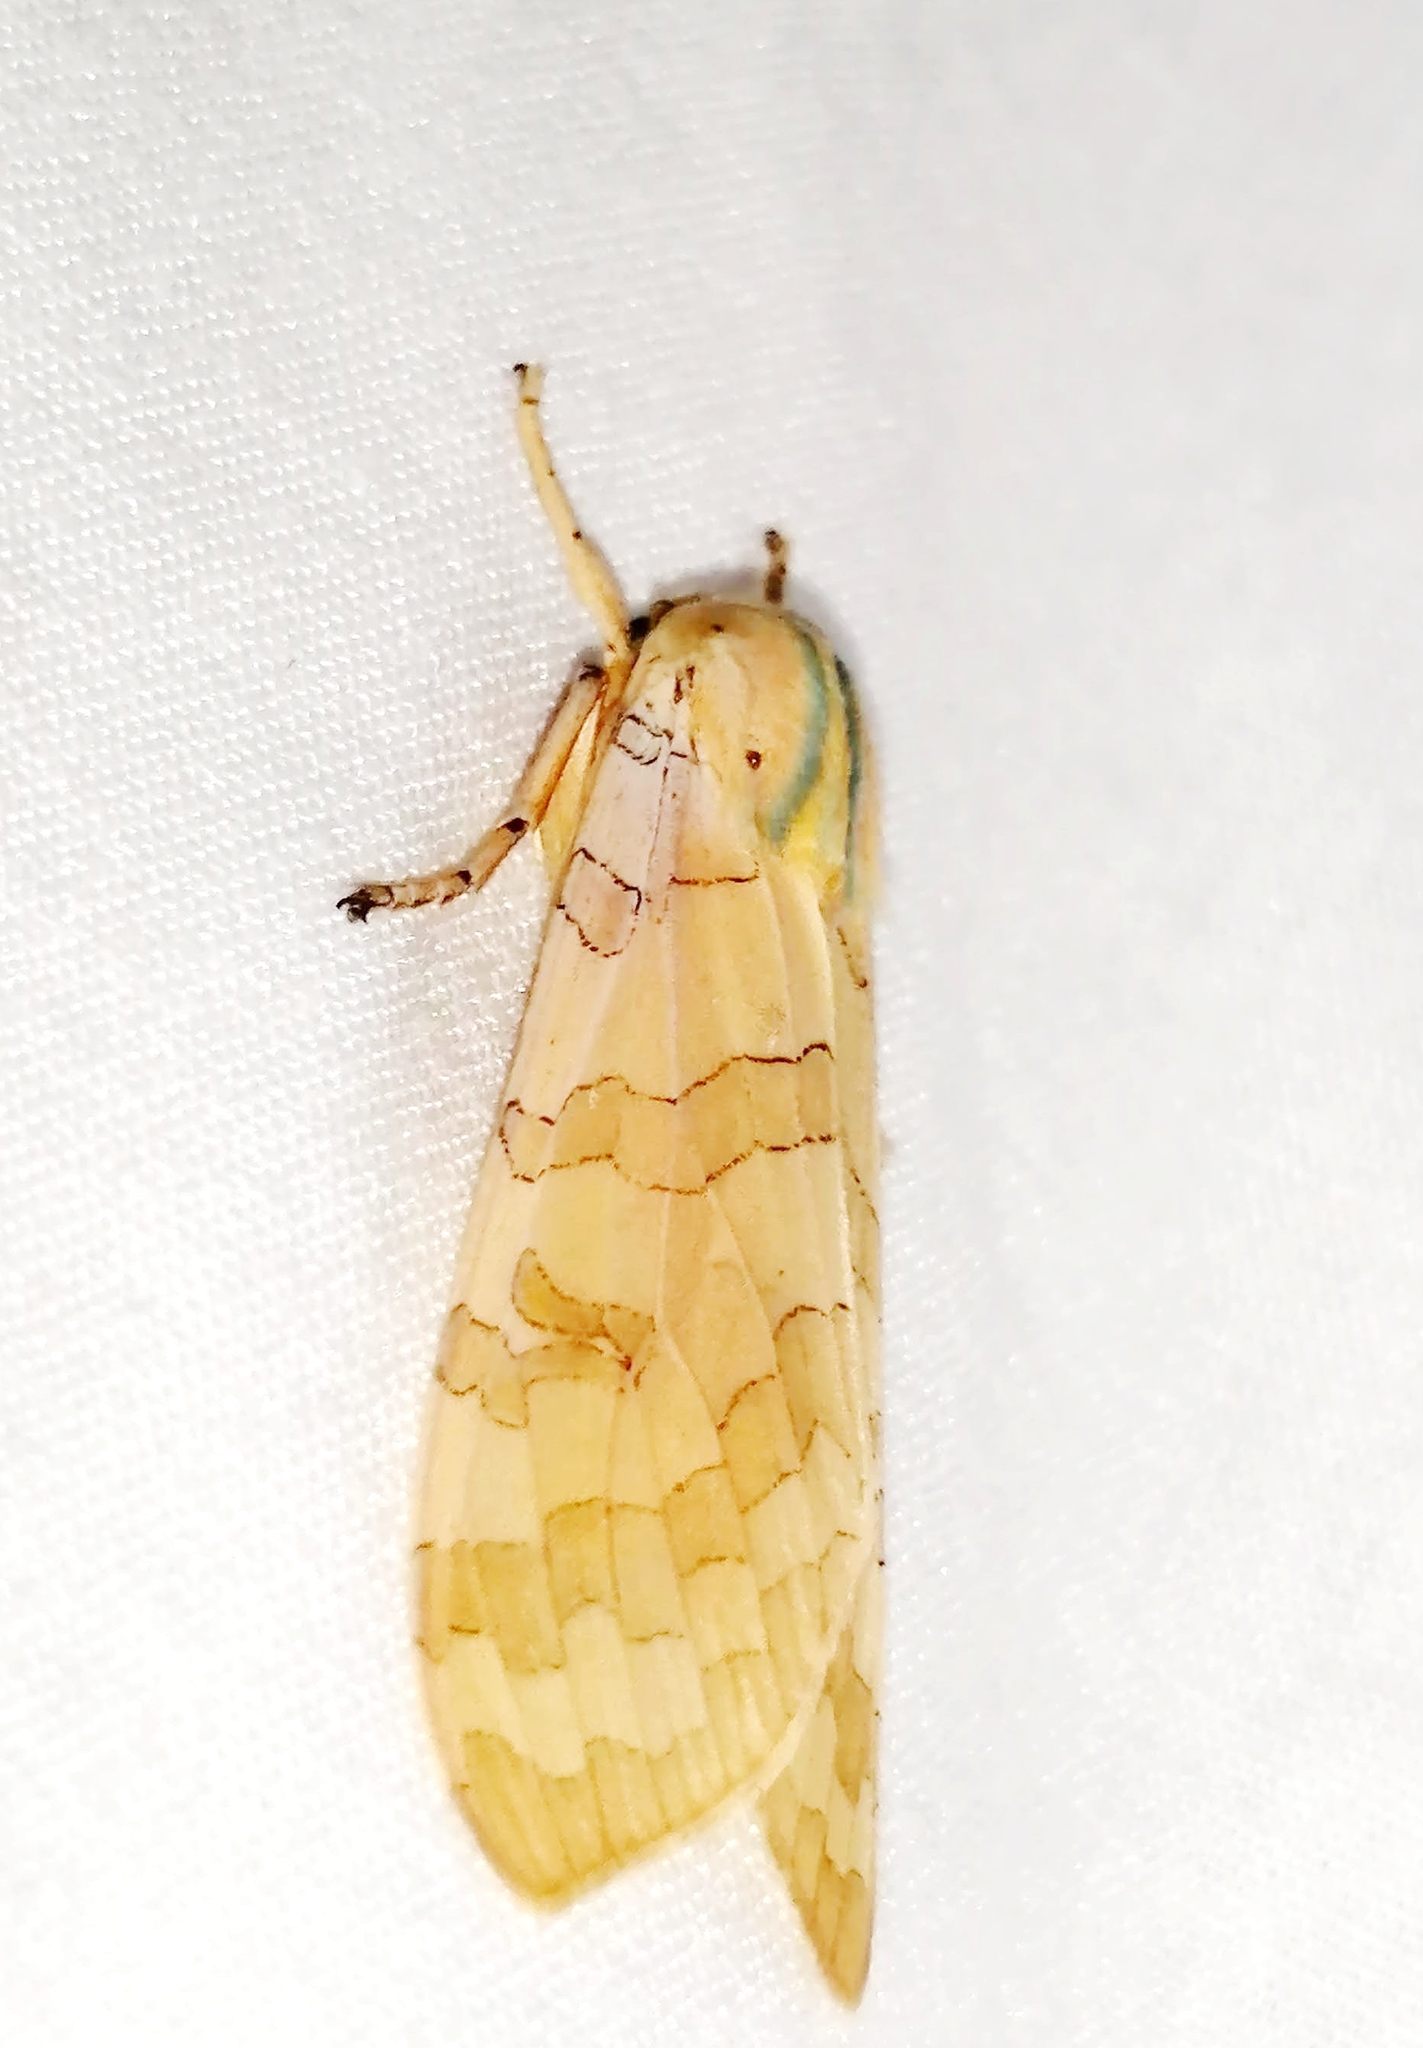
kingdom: Animalia
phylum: Arthropoda
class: Insecta
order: Lepidoptera
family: Erebidae
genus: Halysidota
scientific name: Halysidota tessellaris
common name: Banded tussock moth
